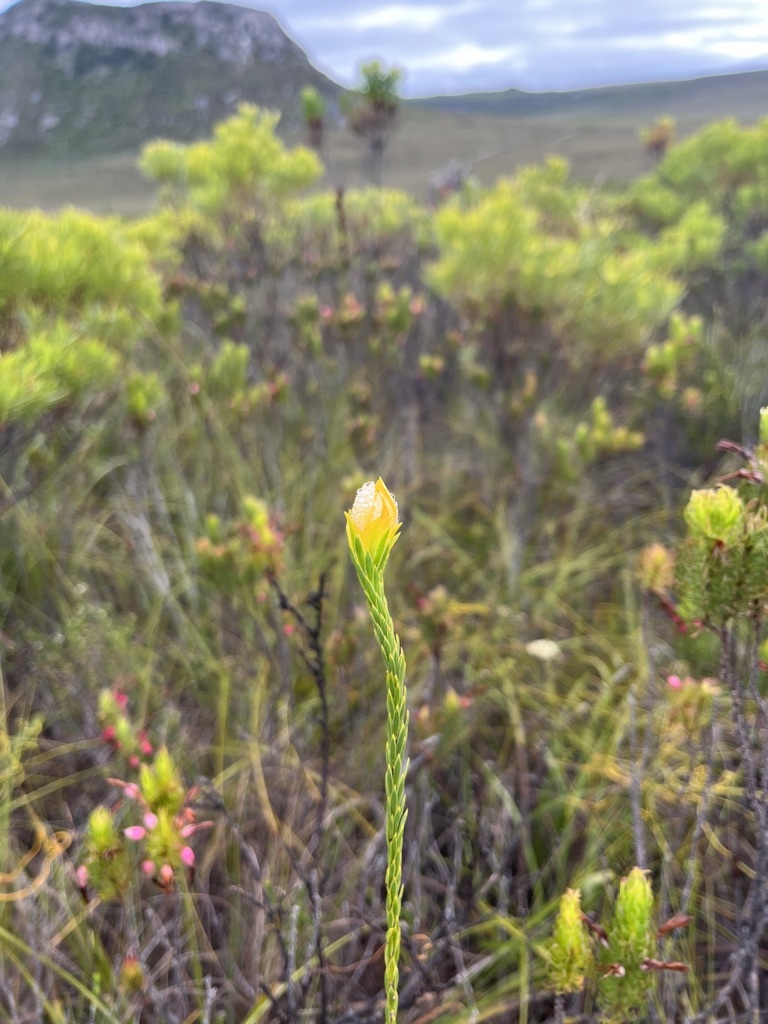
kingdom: Plantae
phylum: Tracheophyta
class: Magnoliopsida
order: Malvales
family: Thymelaeaceae
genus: Lachnaea
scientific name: Lachnaea aurea
